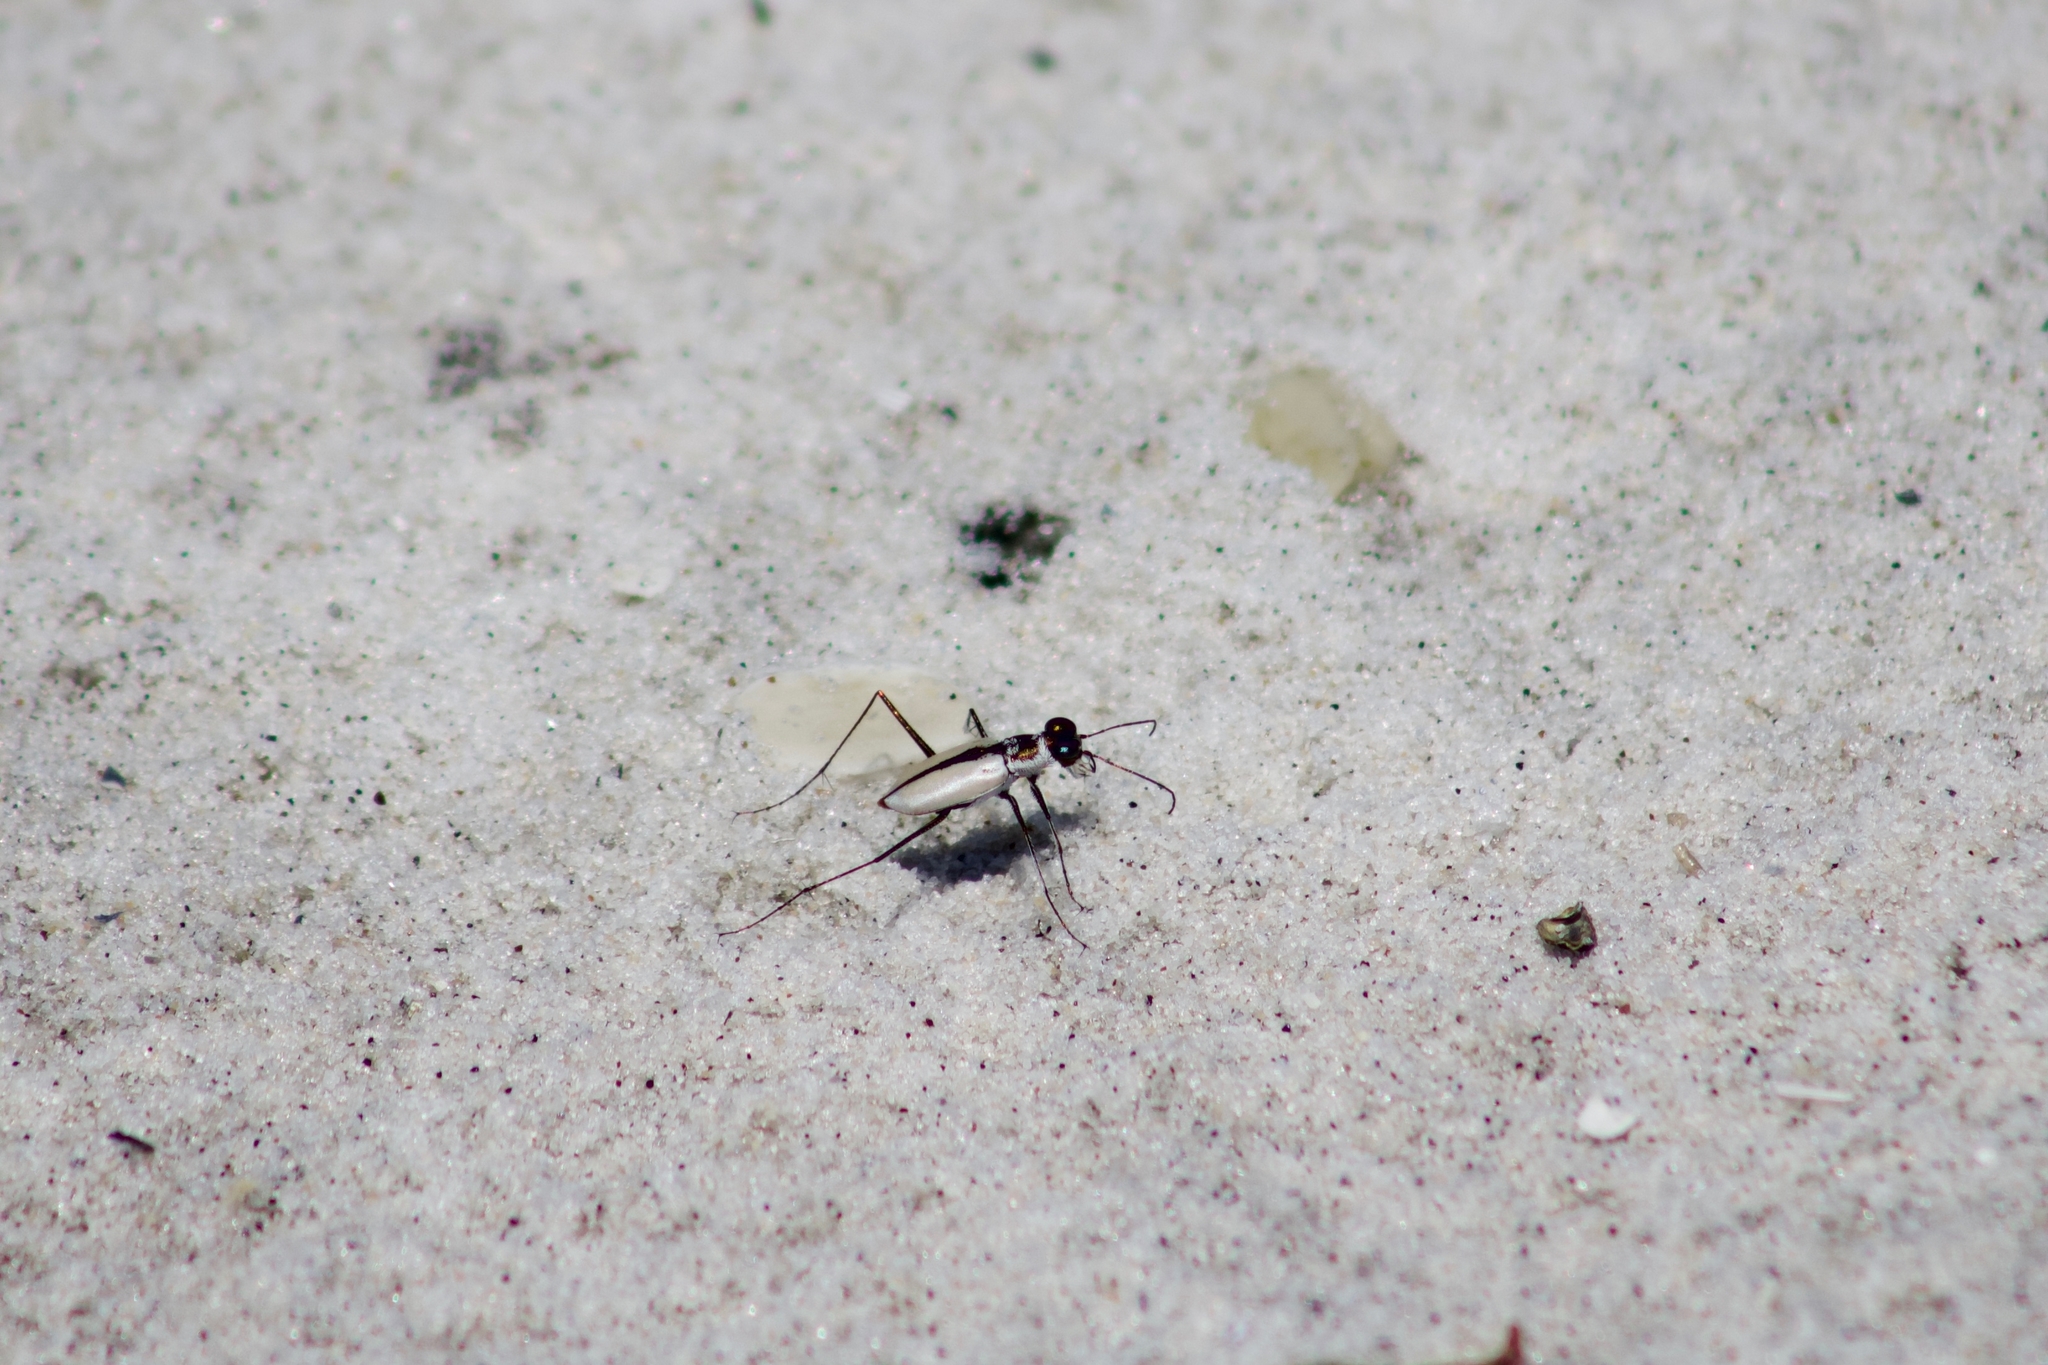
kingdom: Animalia
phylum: Arthropoda
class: Insecta
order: Coleoptera
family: Carabidae
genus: Habroscelimorpha
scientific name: Habroscelimorpha dorsalis
